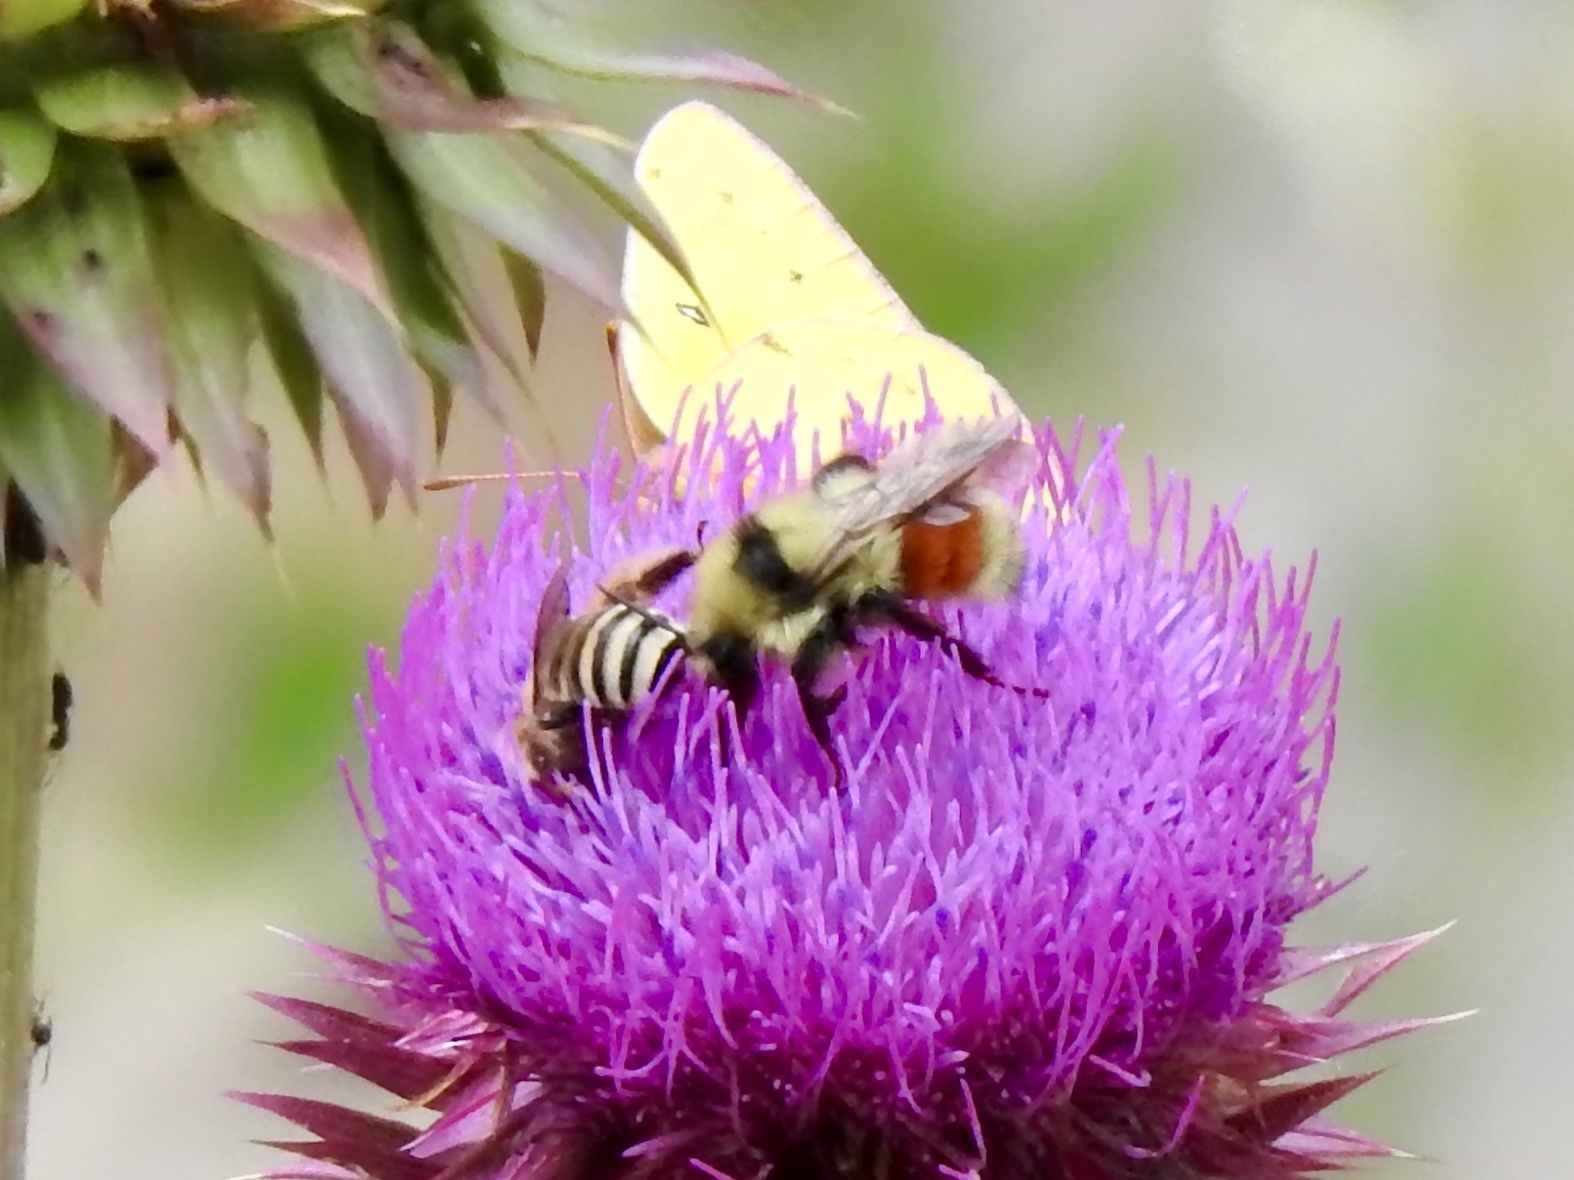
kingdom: Animalia
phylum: Arthropoda
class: Insecta
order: Hymenoptera
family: Apidae
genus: Bombus
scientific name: Bombus huntii
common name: Hunt bumble bee
